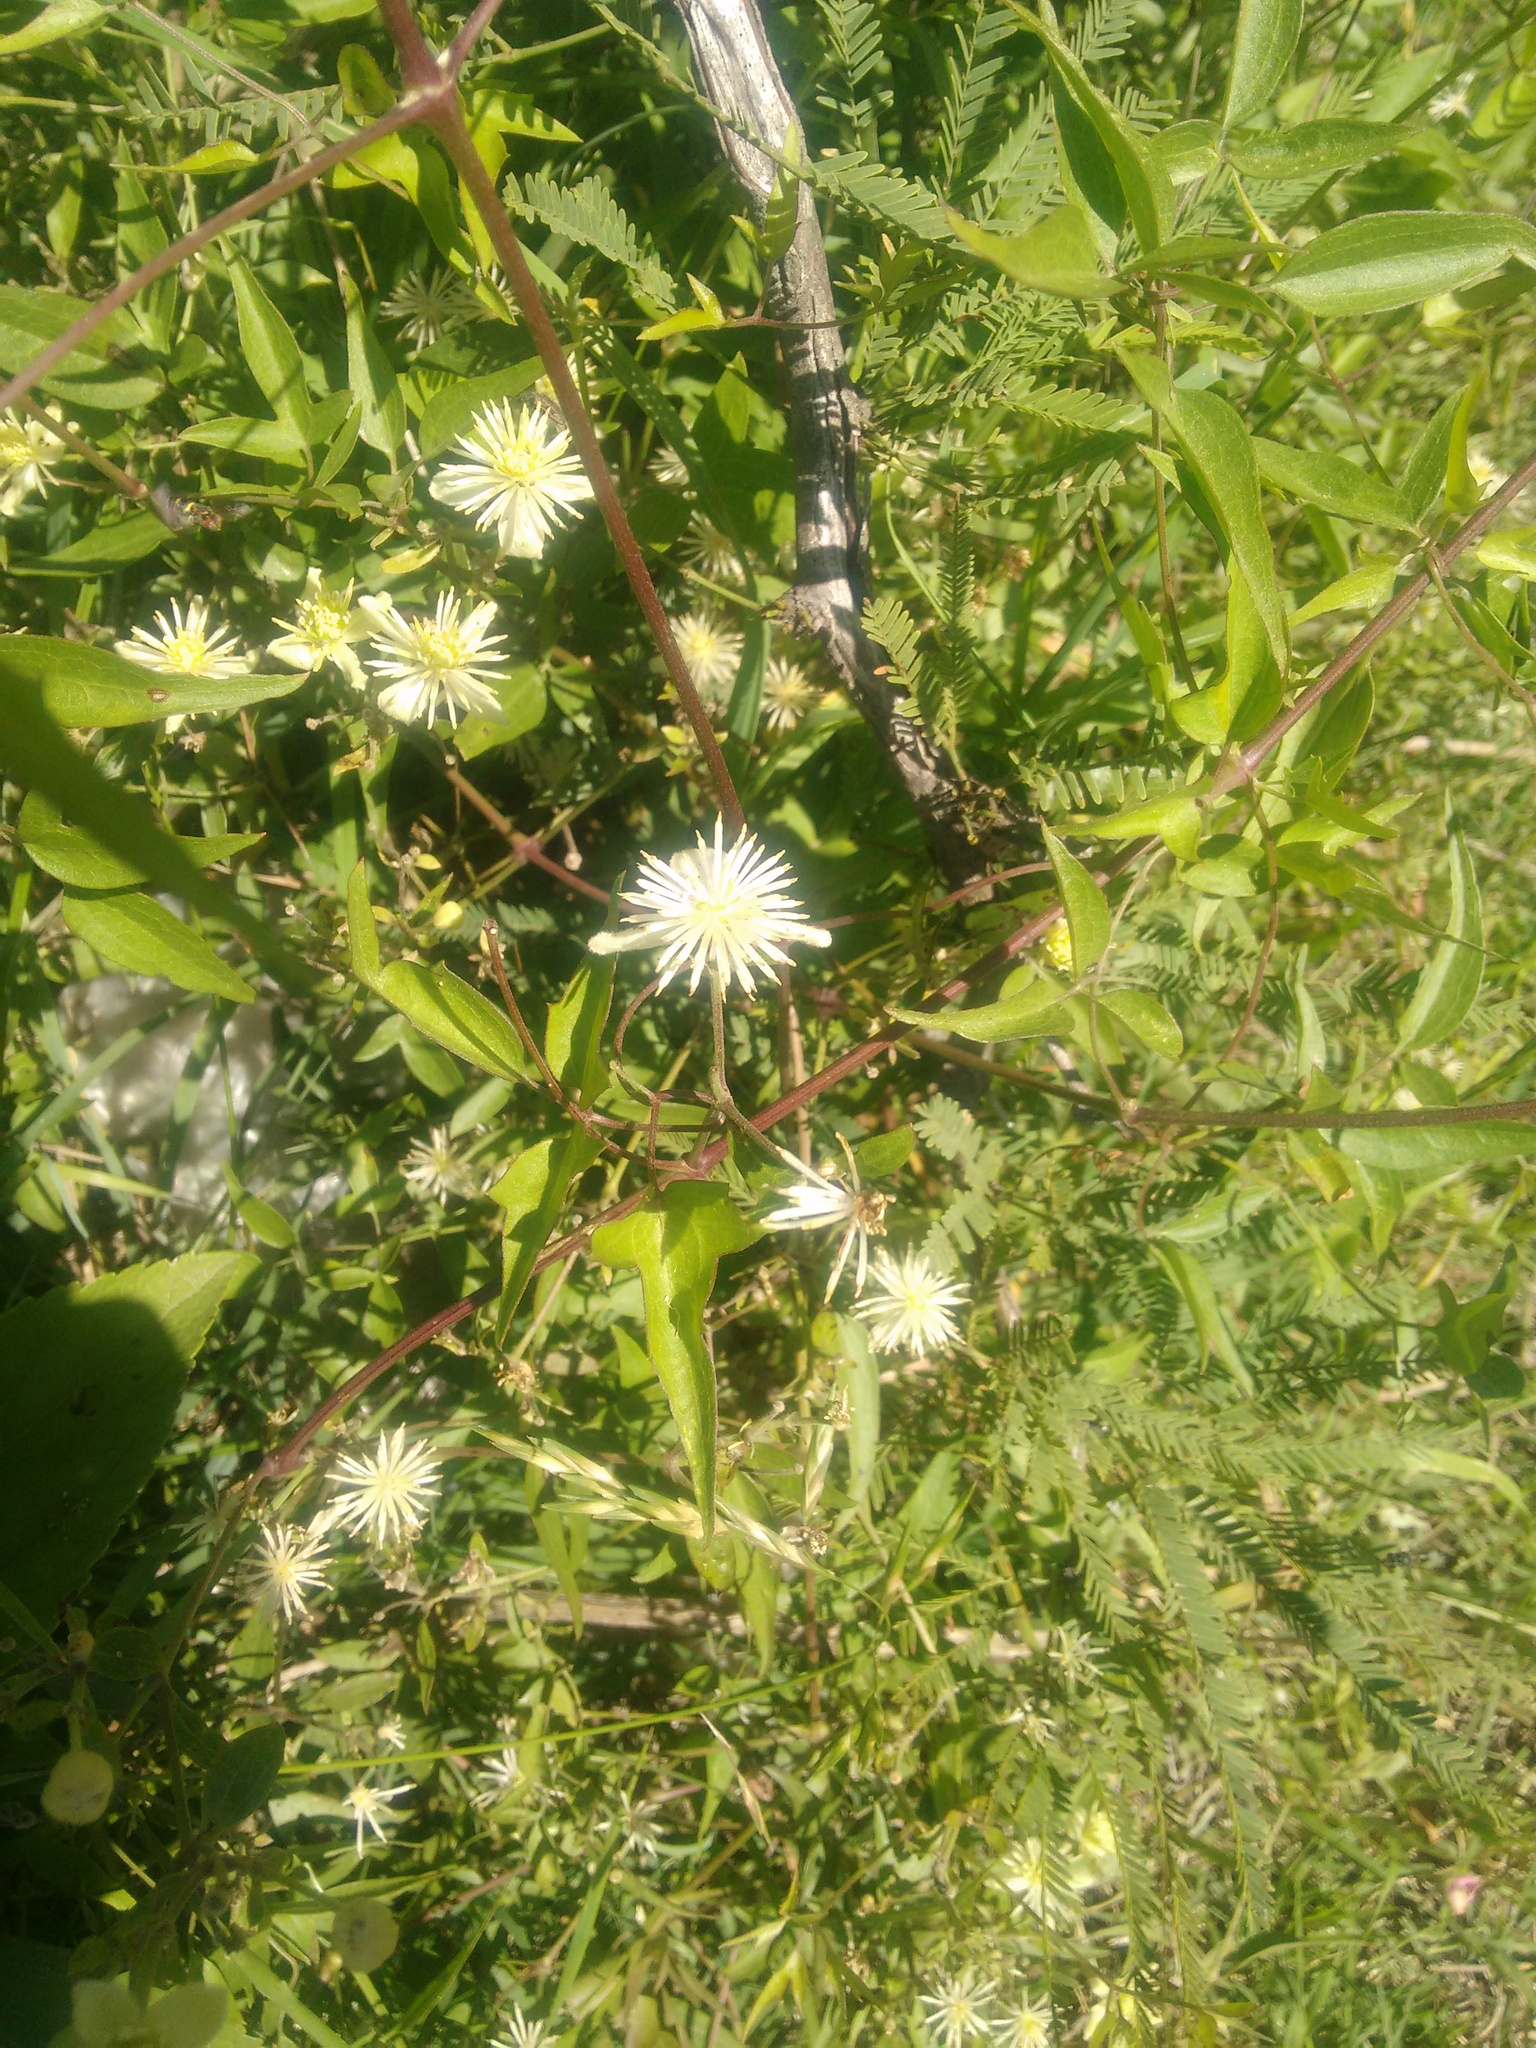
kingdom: Plantae
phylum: Tracheophyta
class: Magnoliopsida
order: Ranunculales
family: Ranunculaceae
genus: Clematis
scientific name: Clematis montevidensis
